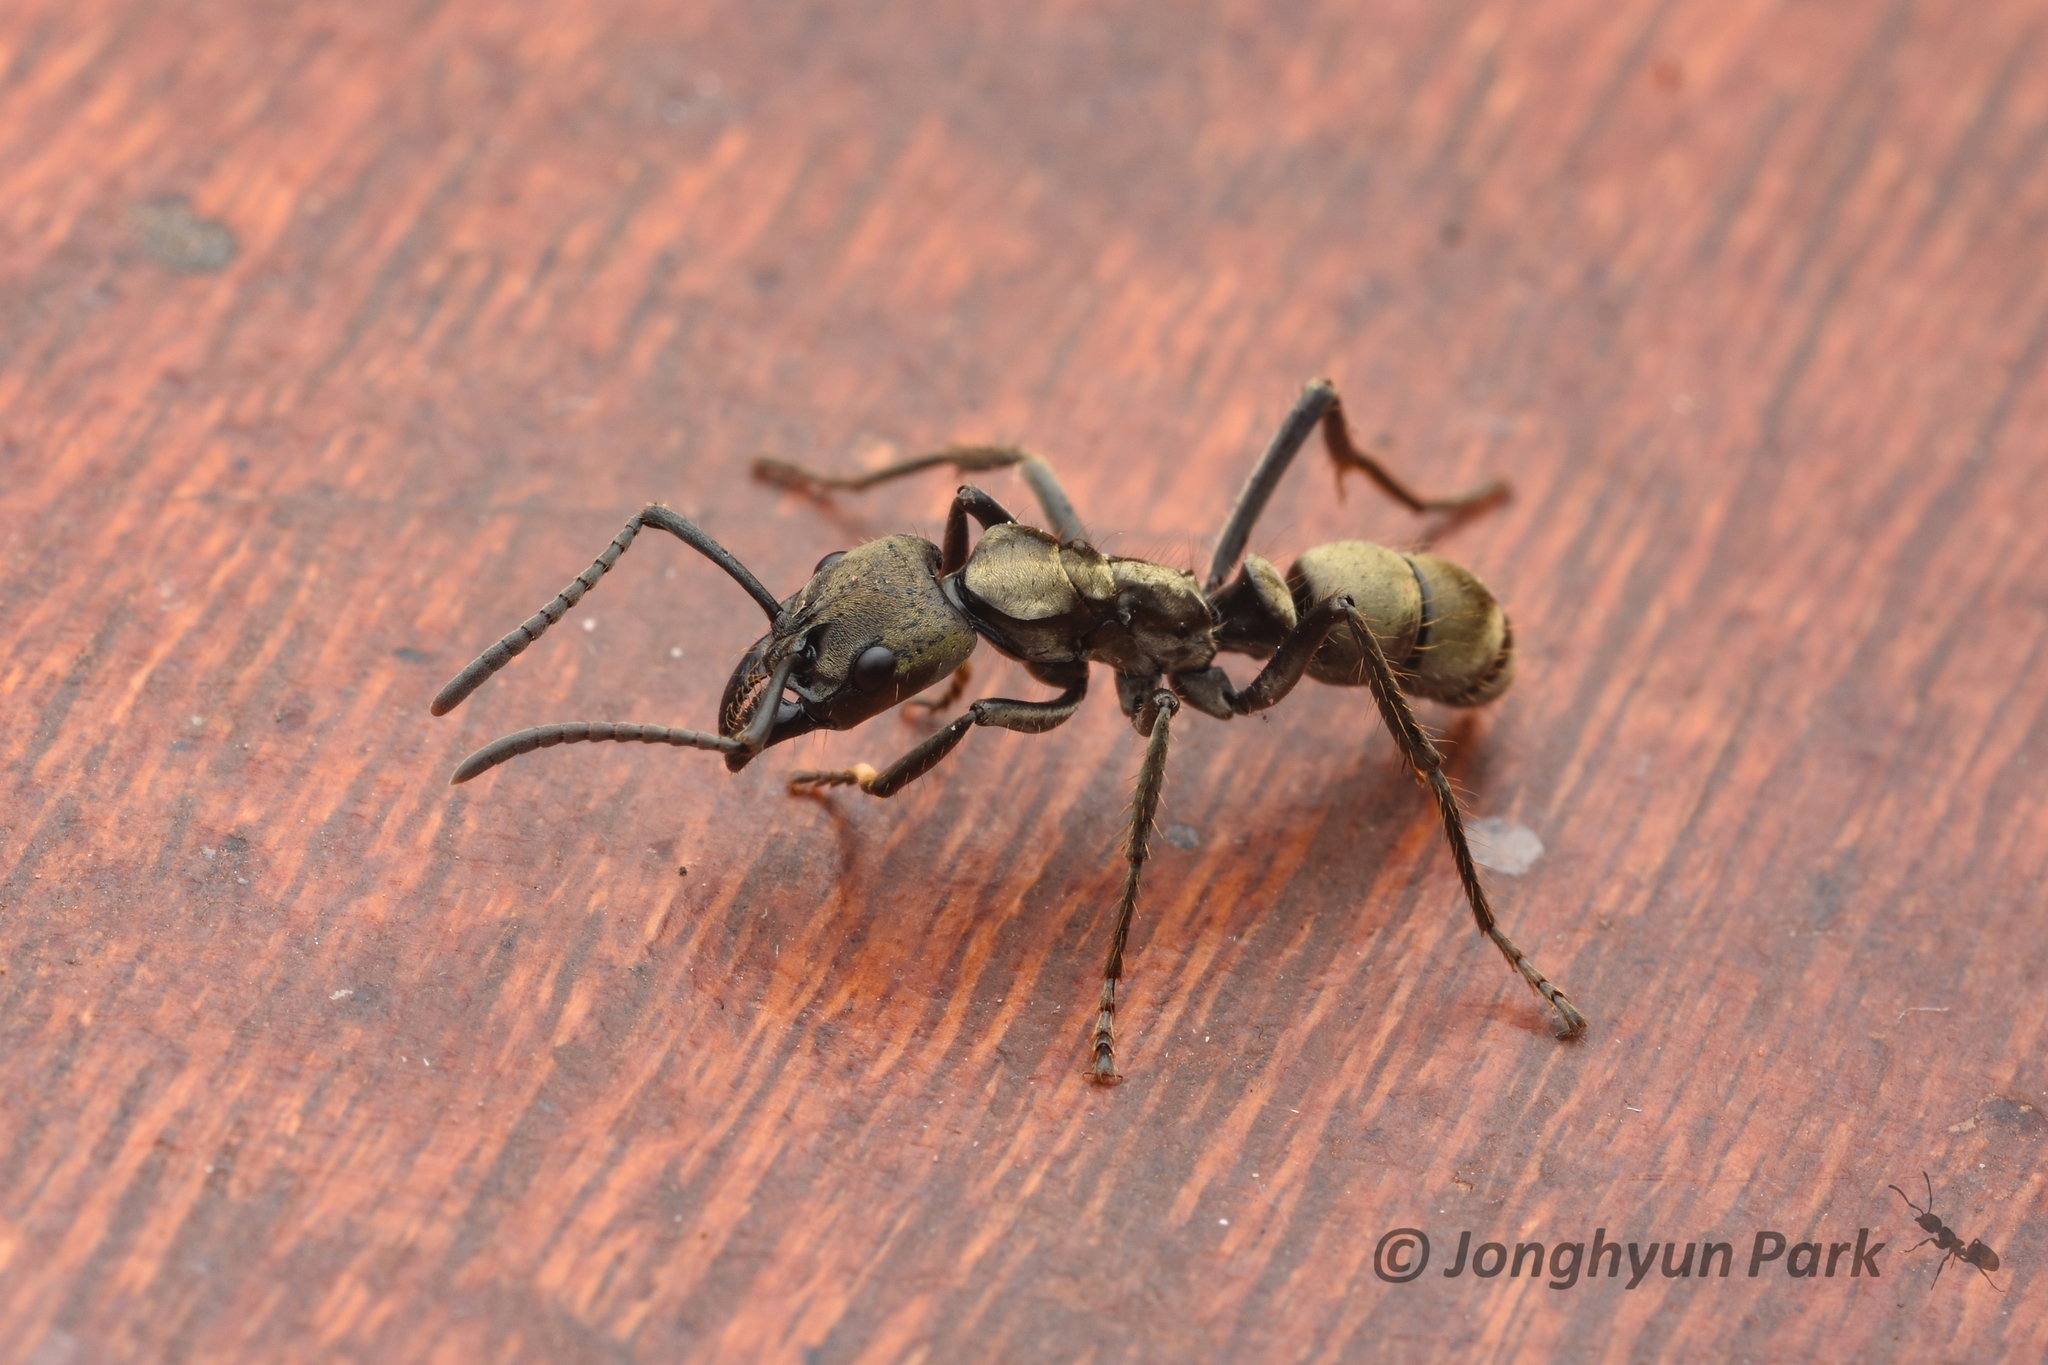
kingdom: Animalia
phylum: Arthropoda
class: Insecta
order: Hymenoptera
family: Formicidae
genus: Pachycondyla
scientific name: Pachycondyla villosa
